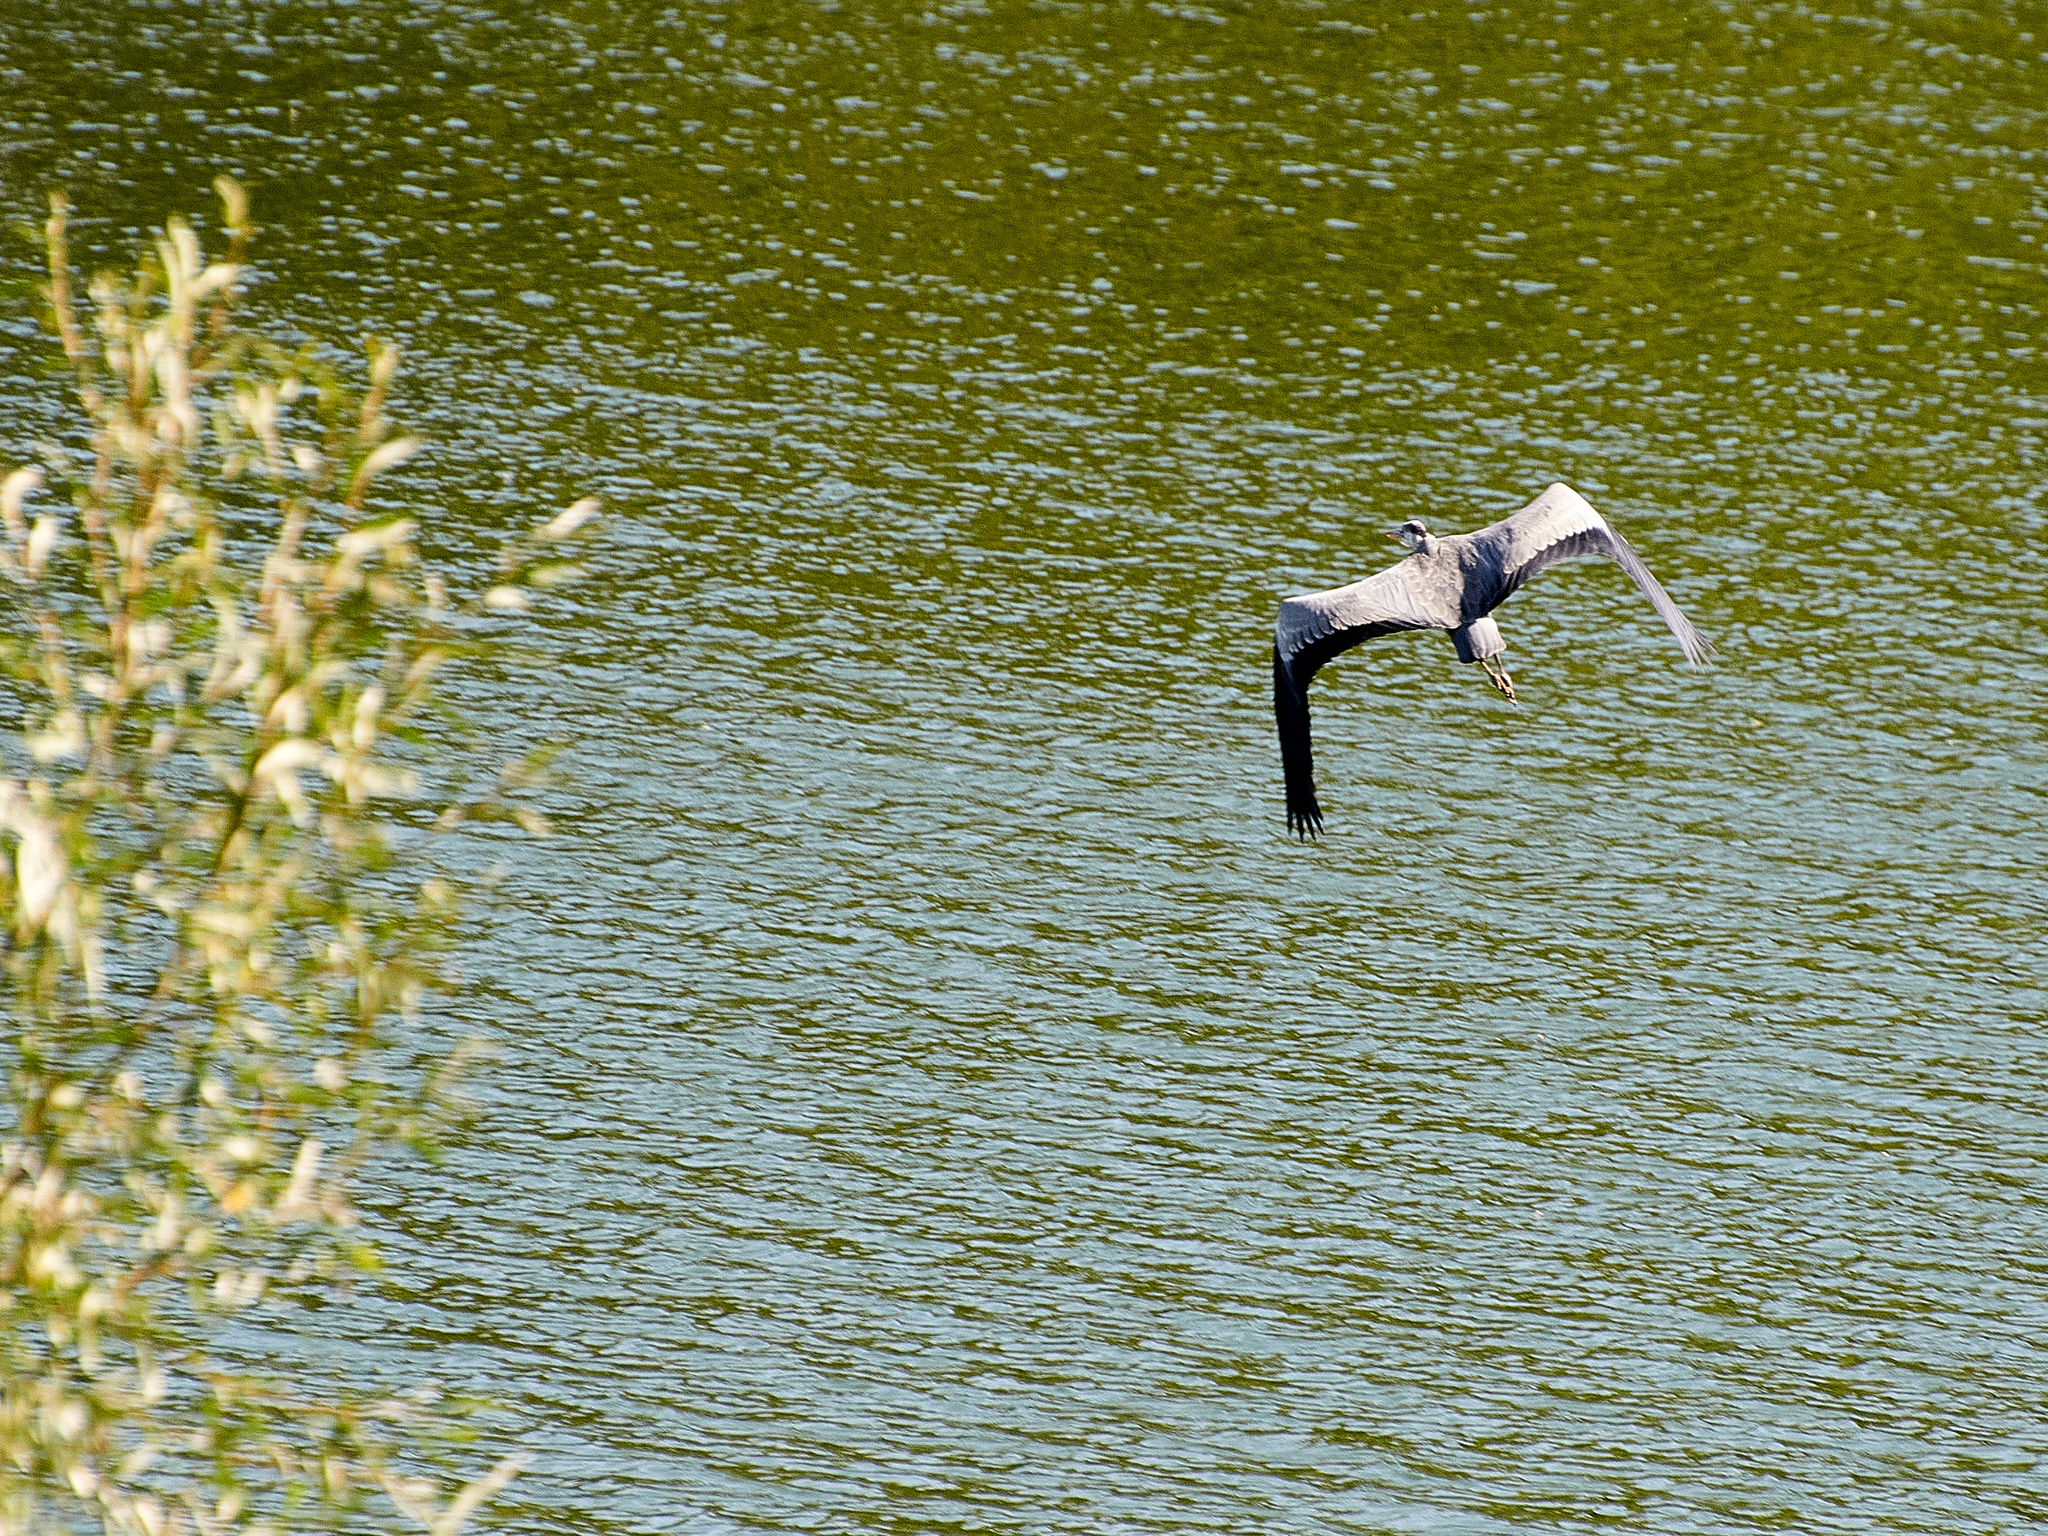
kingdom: Animalia
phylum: Chordata
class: Aves
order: Pelecaniformes
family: Ardeidae
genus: Ardea
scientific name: Ardea cinerea
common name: Grey heron
